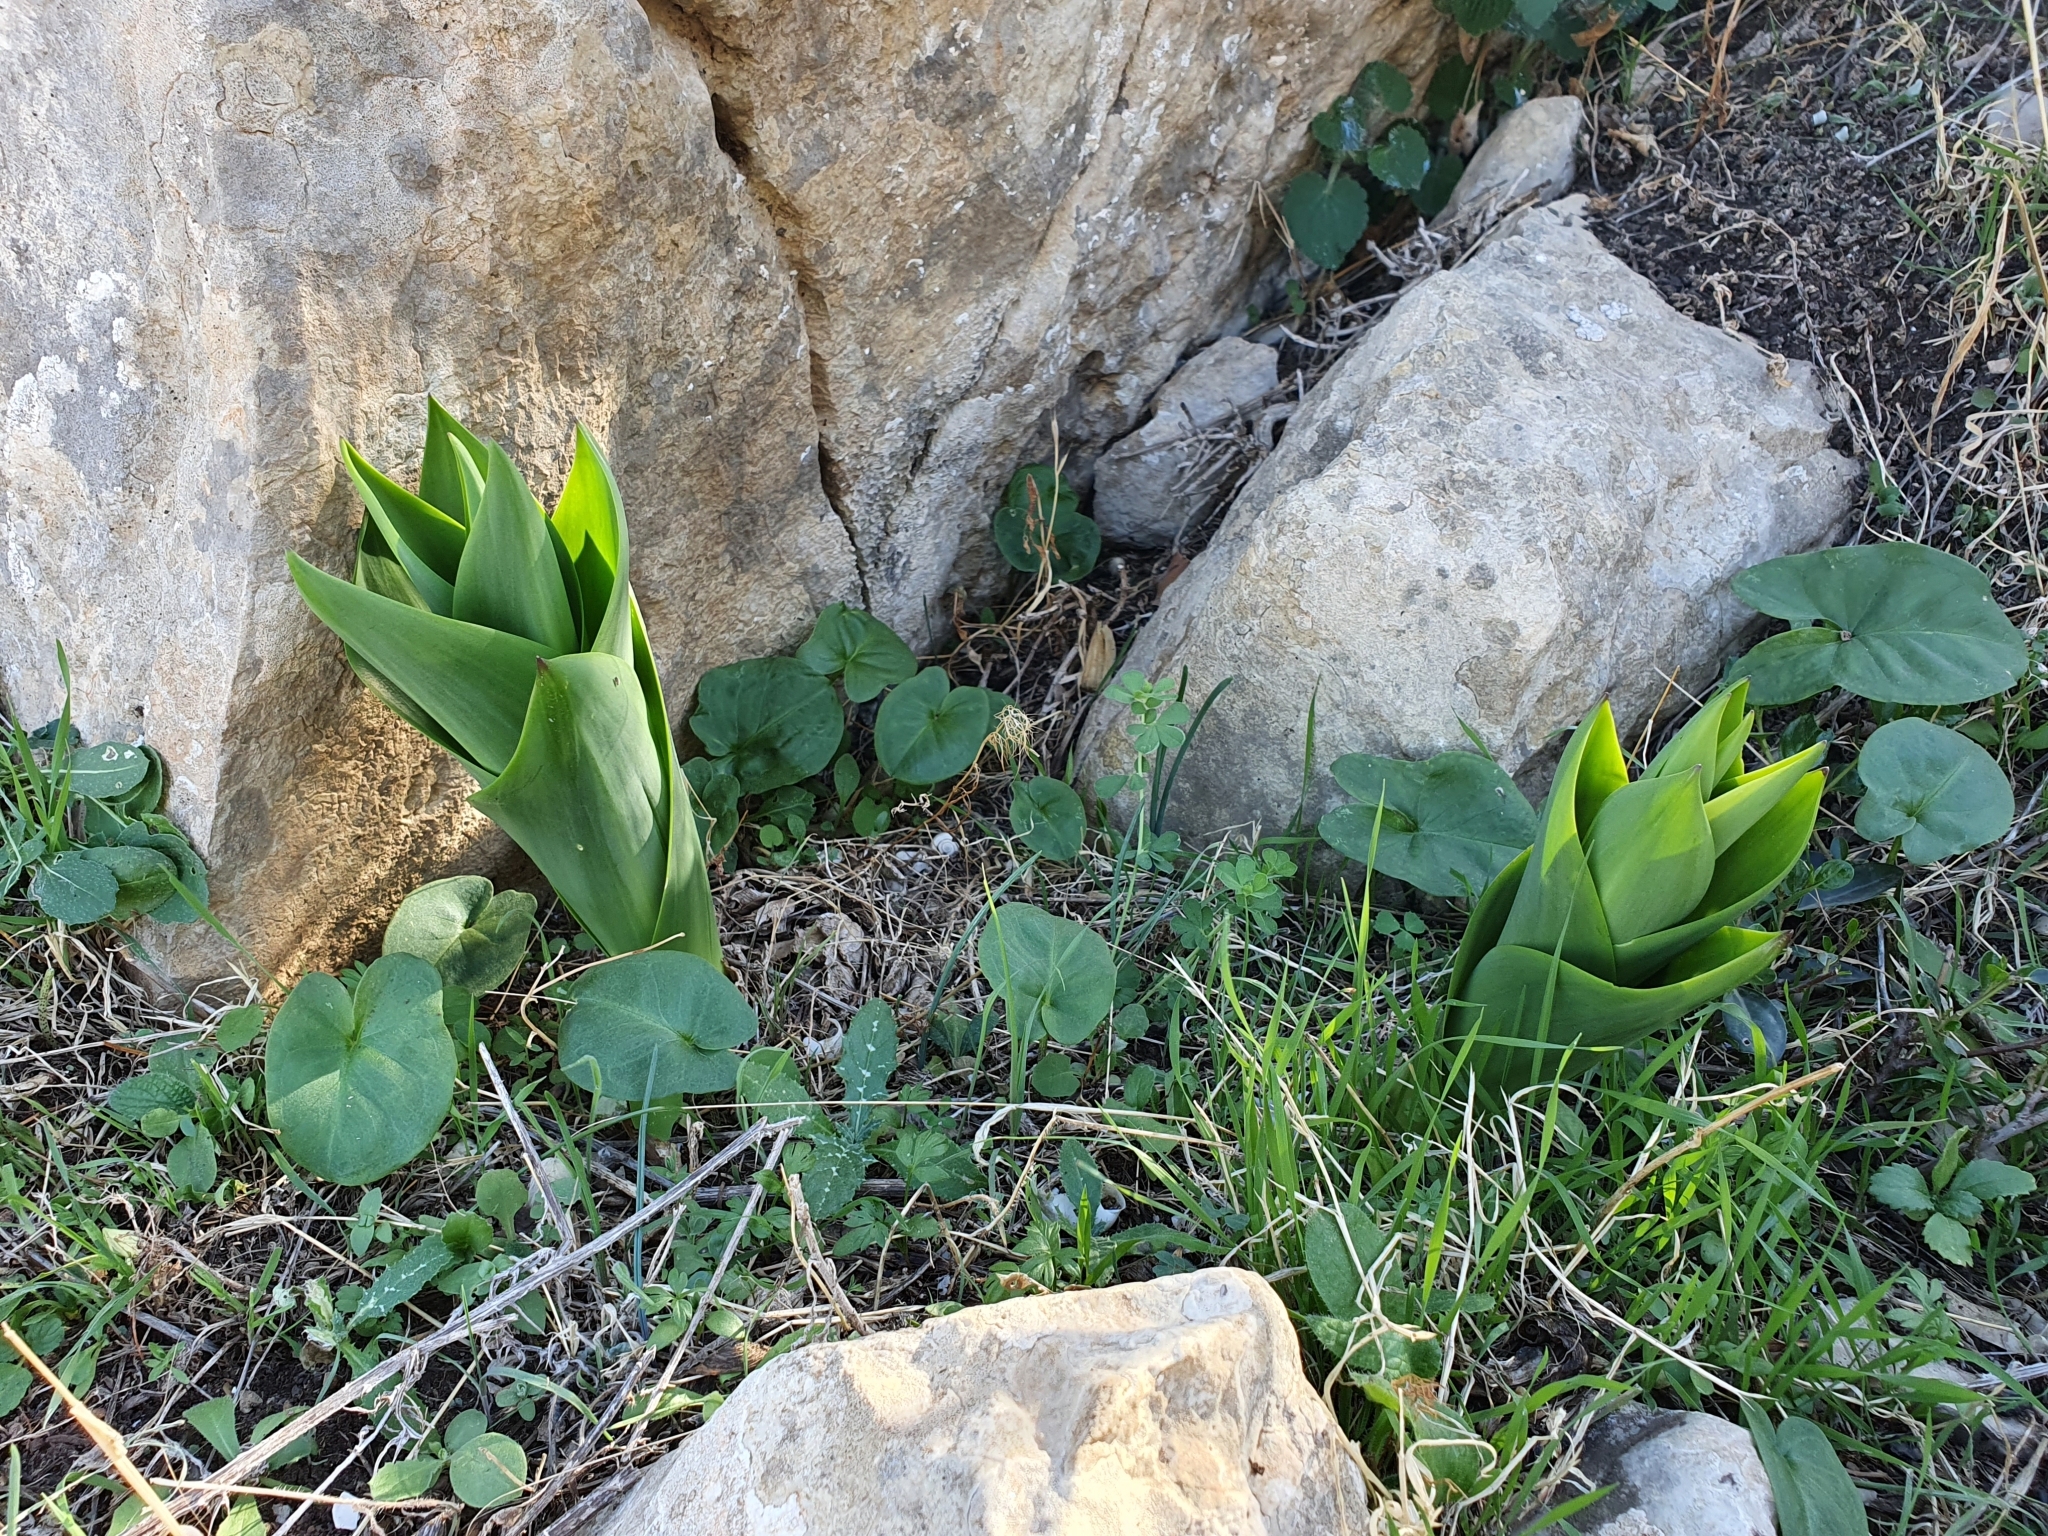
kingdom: Plantae
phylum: Tracheophyta
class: Liliopsida
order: Asparagales
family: Asparagaceae
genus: Drimia
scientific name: Drimia numidica
